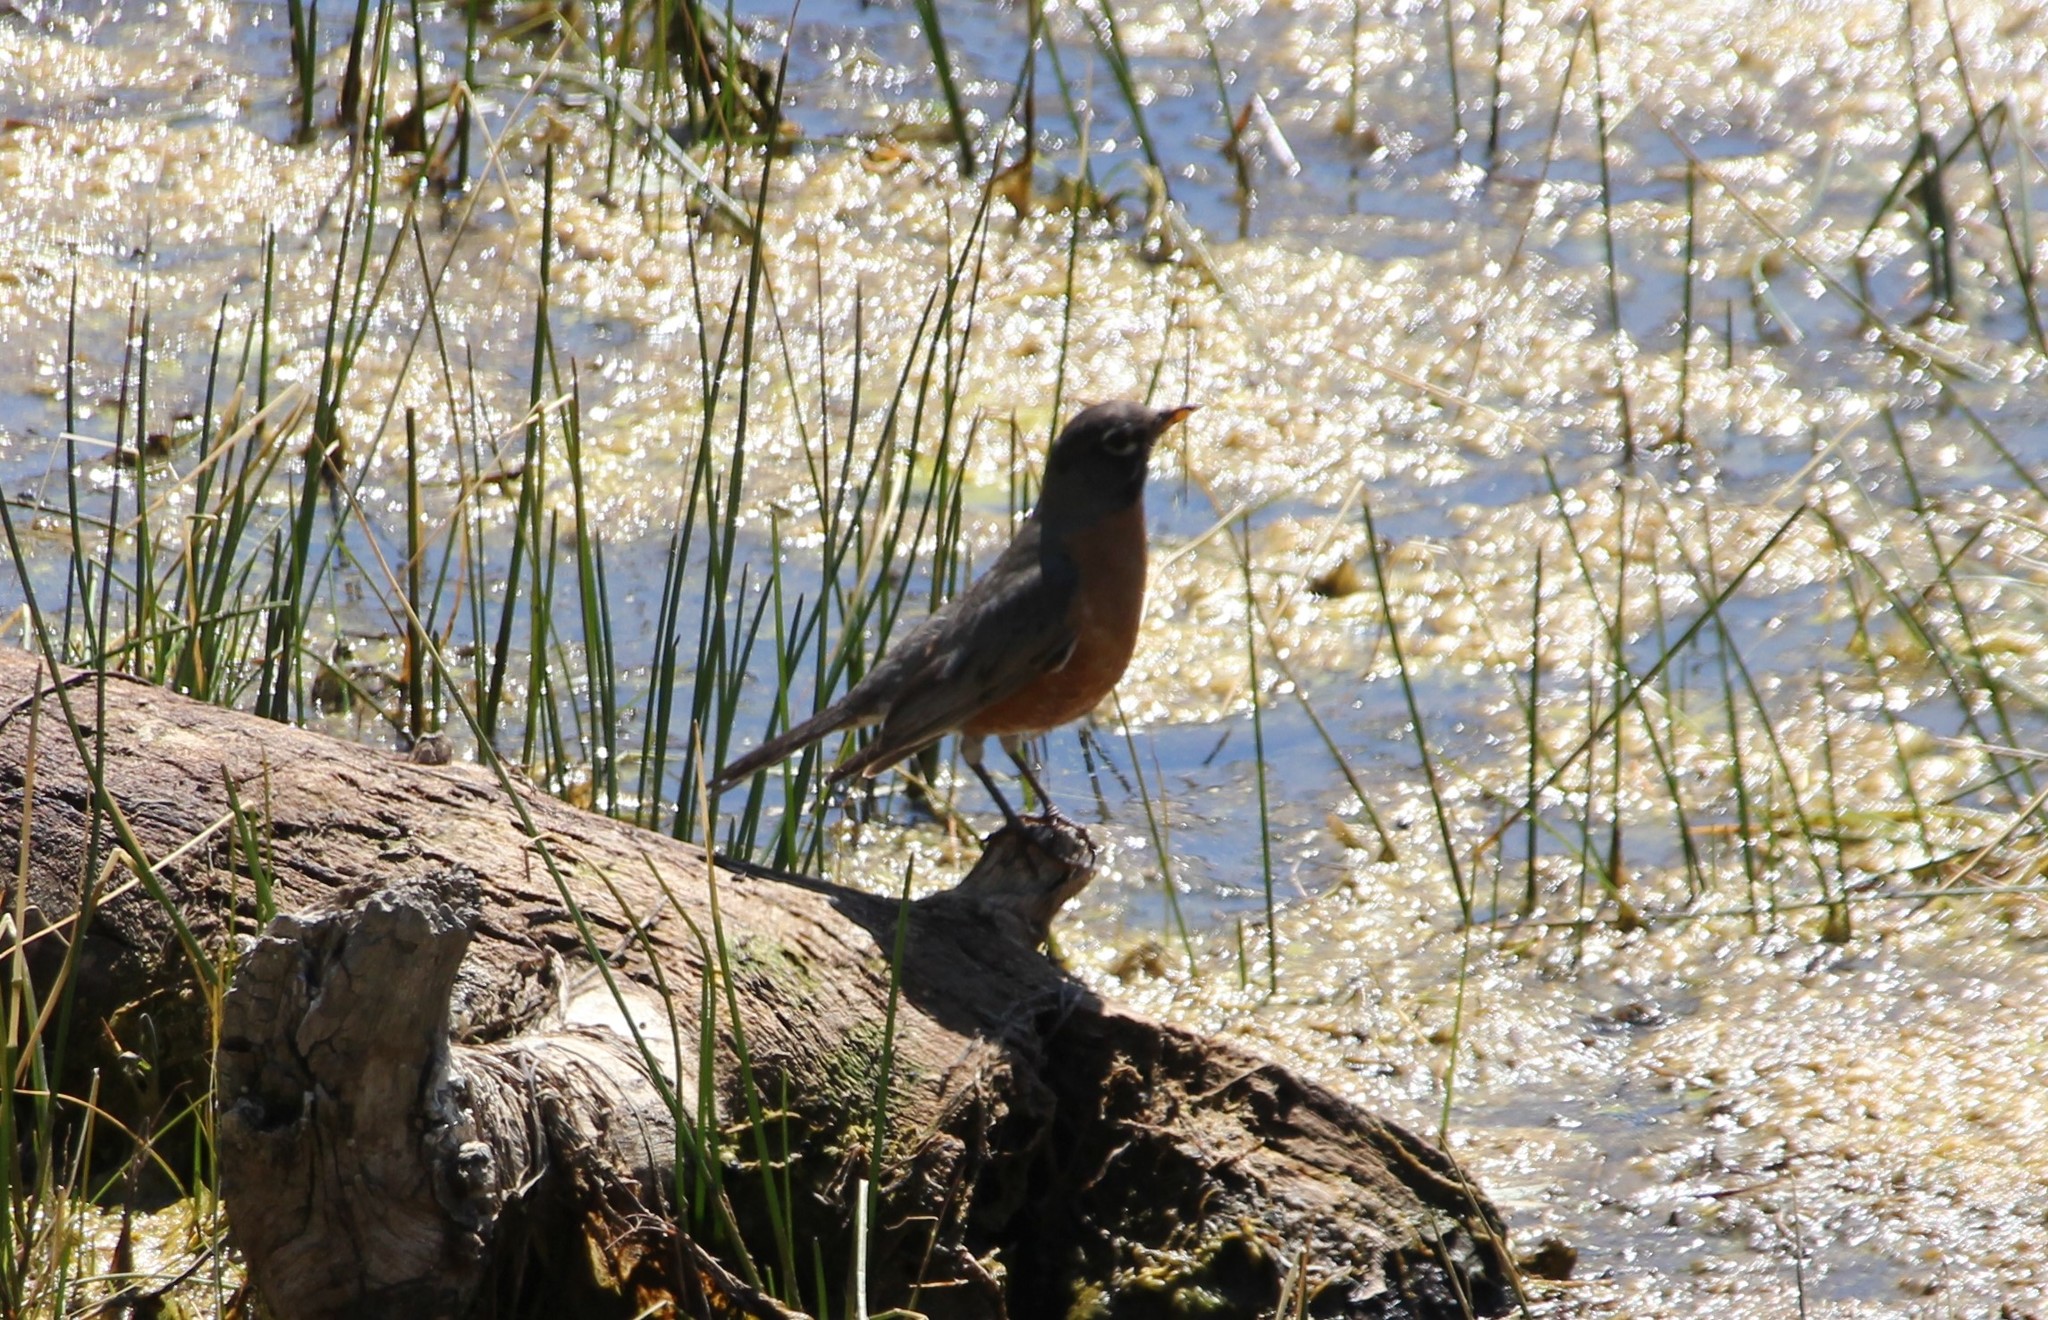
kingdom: Animalia
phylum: Chordata
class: Aves
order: Passeriformes
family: Turdidae
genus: Turdus
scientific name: Turdus migratorius
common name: American robin
